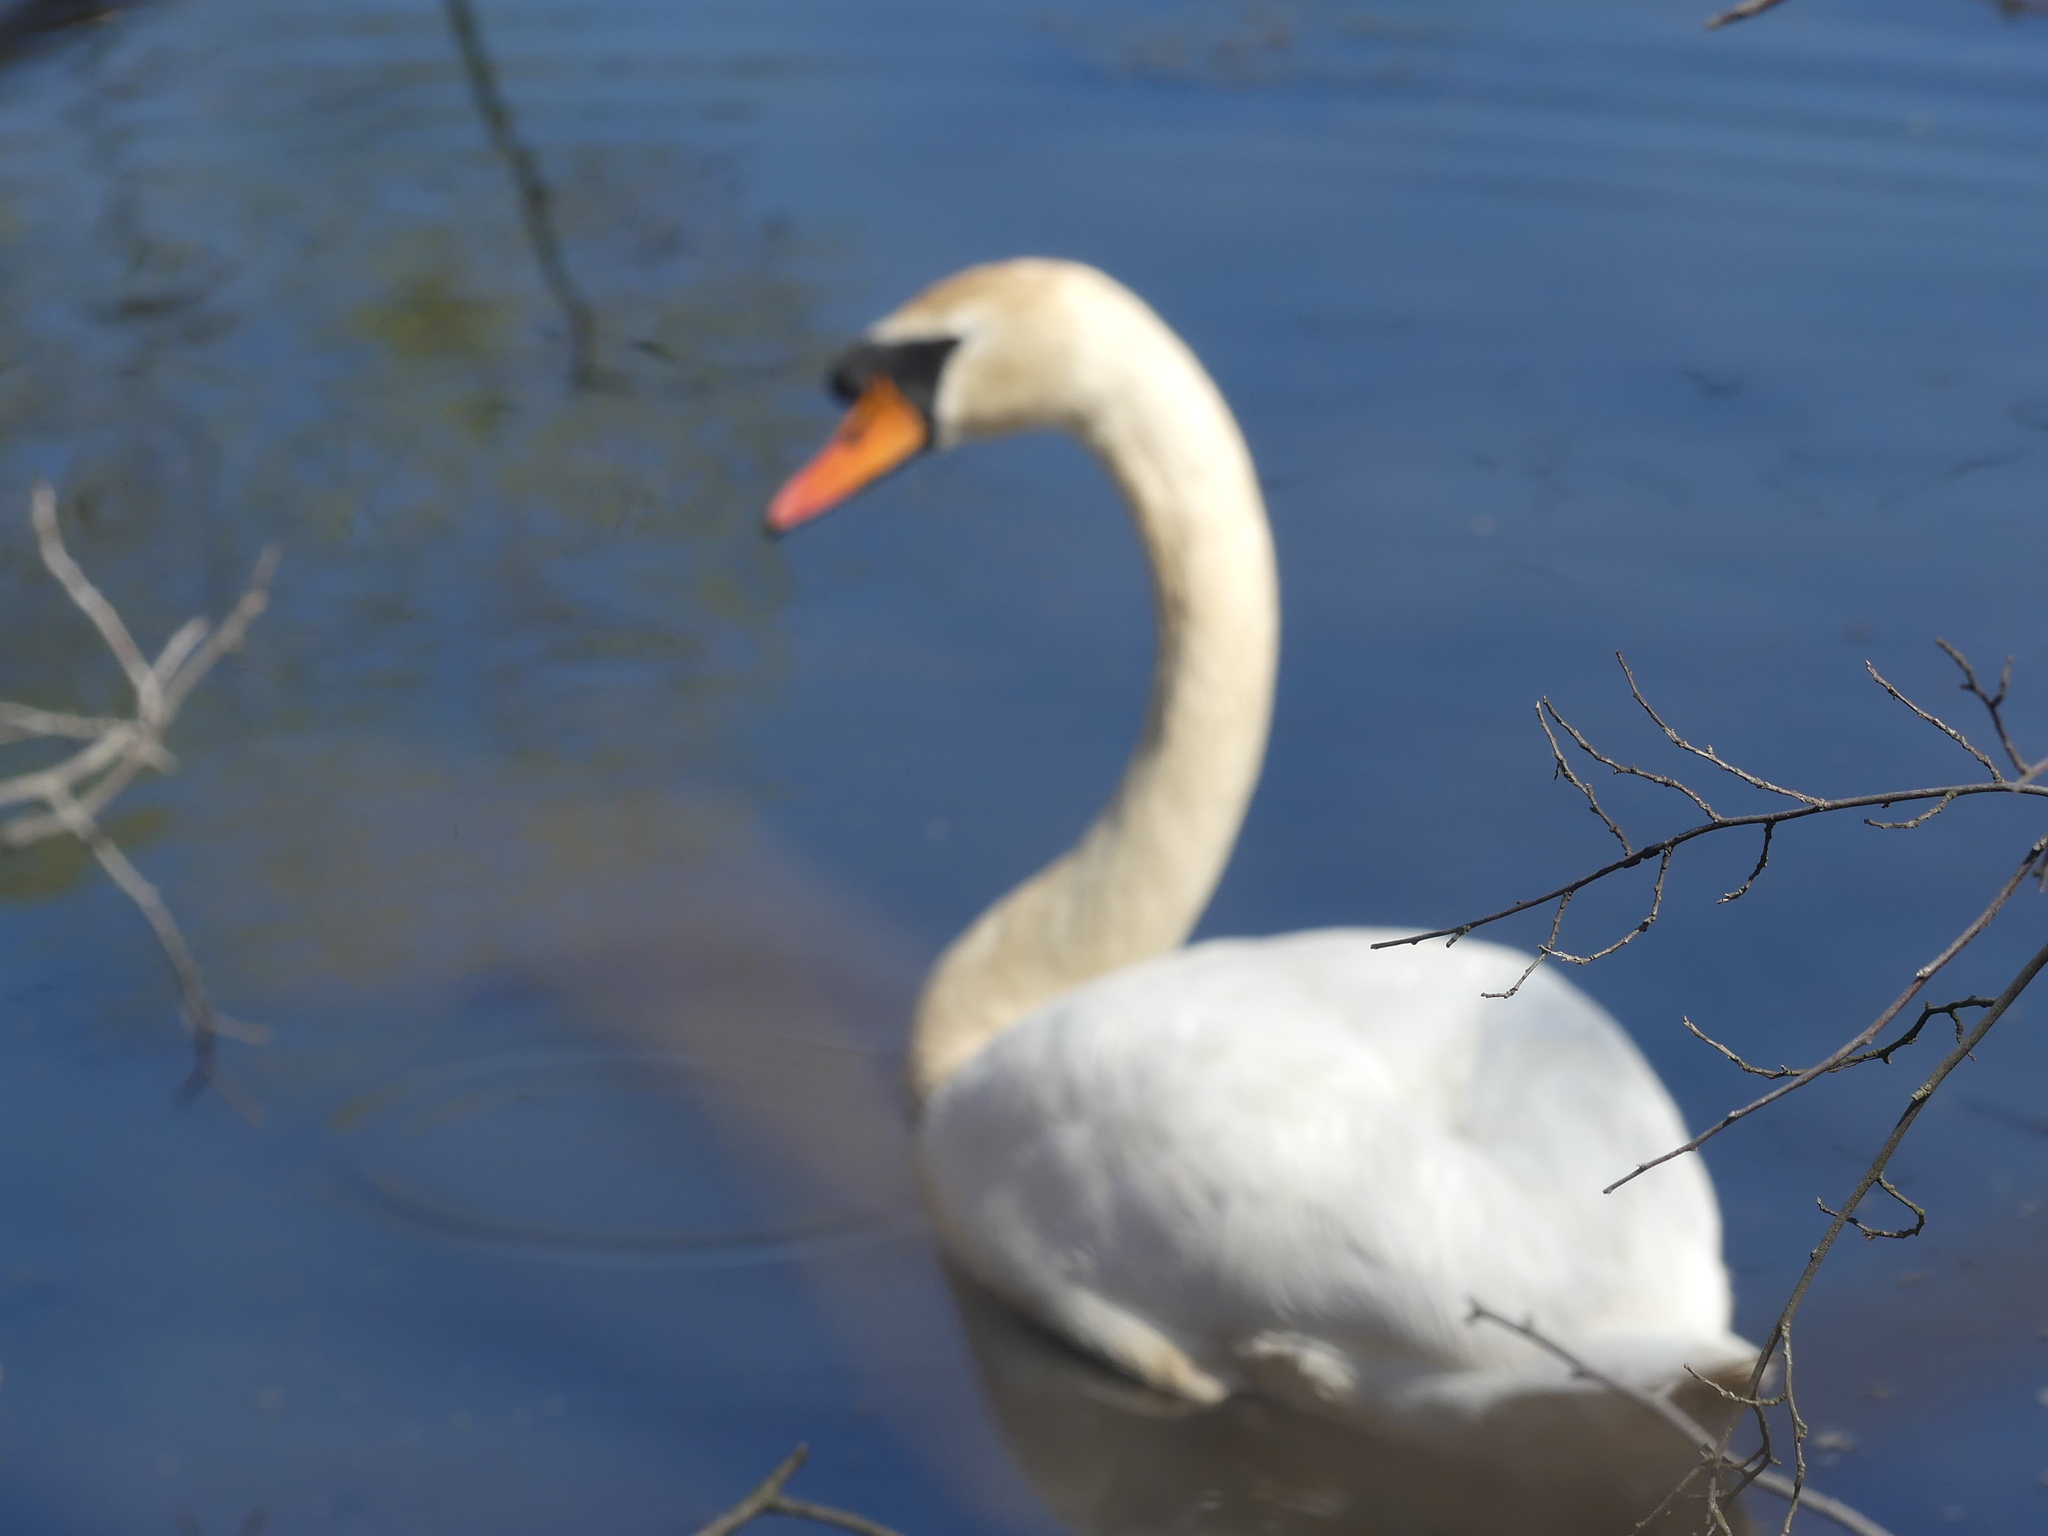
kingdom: Animalia
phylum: Chordata
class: Aves
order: Anseriformes
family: Anatidae
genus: Cygnus
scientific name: Cygnus olor
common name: Mute swan
